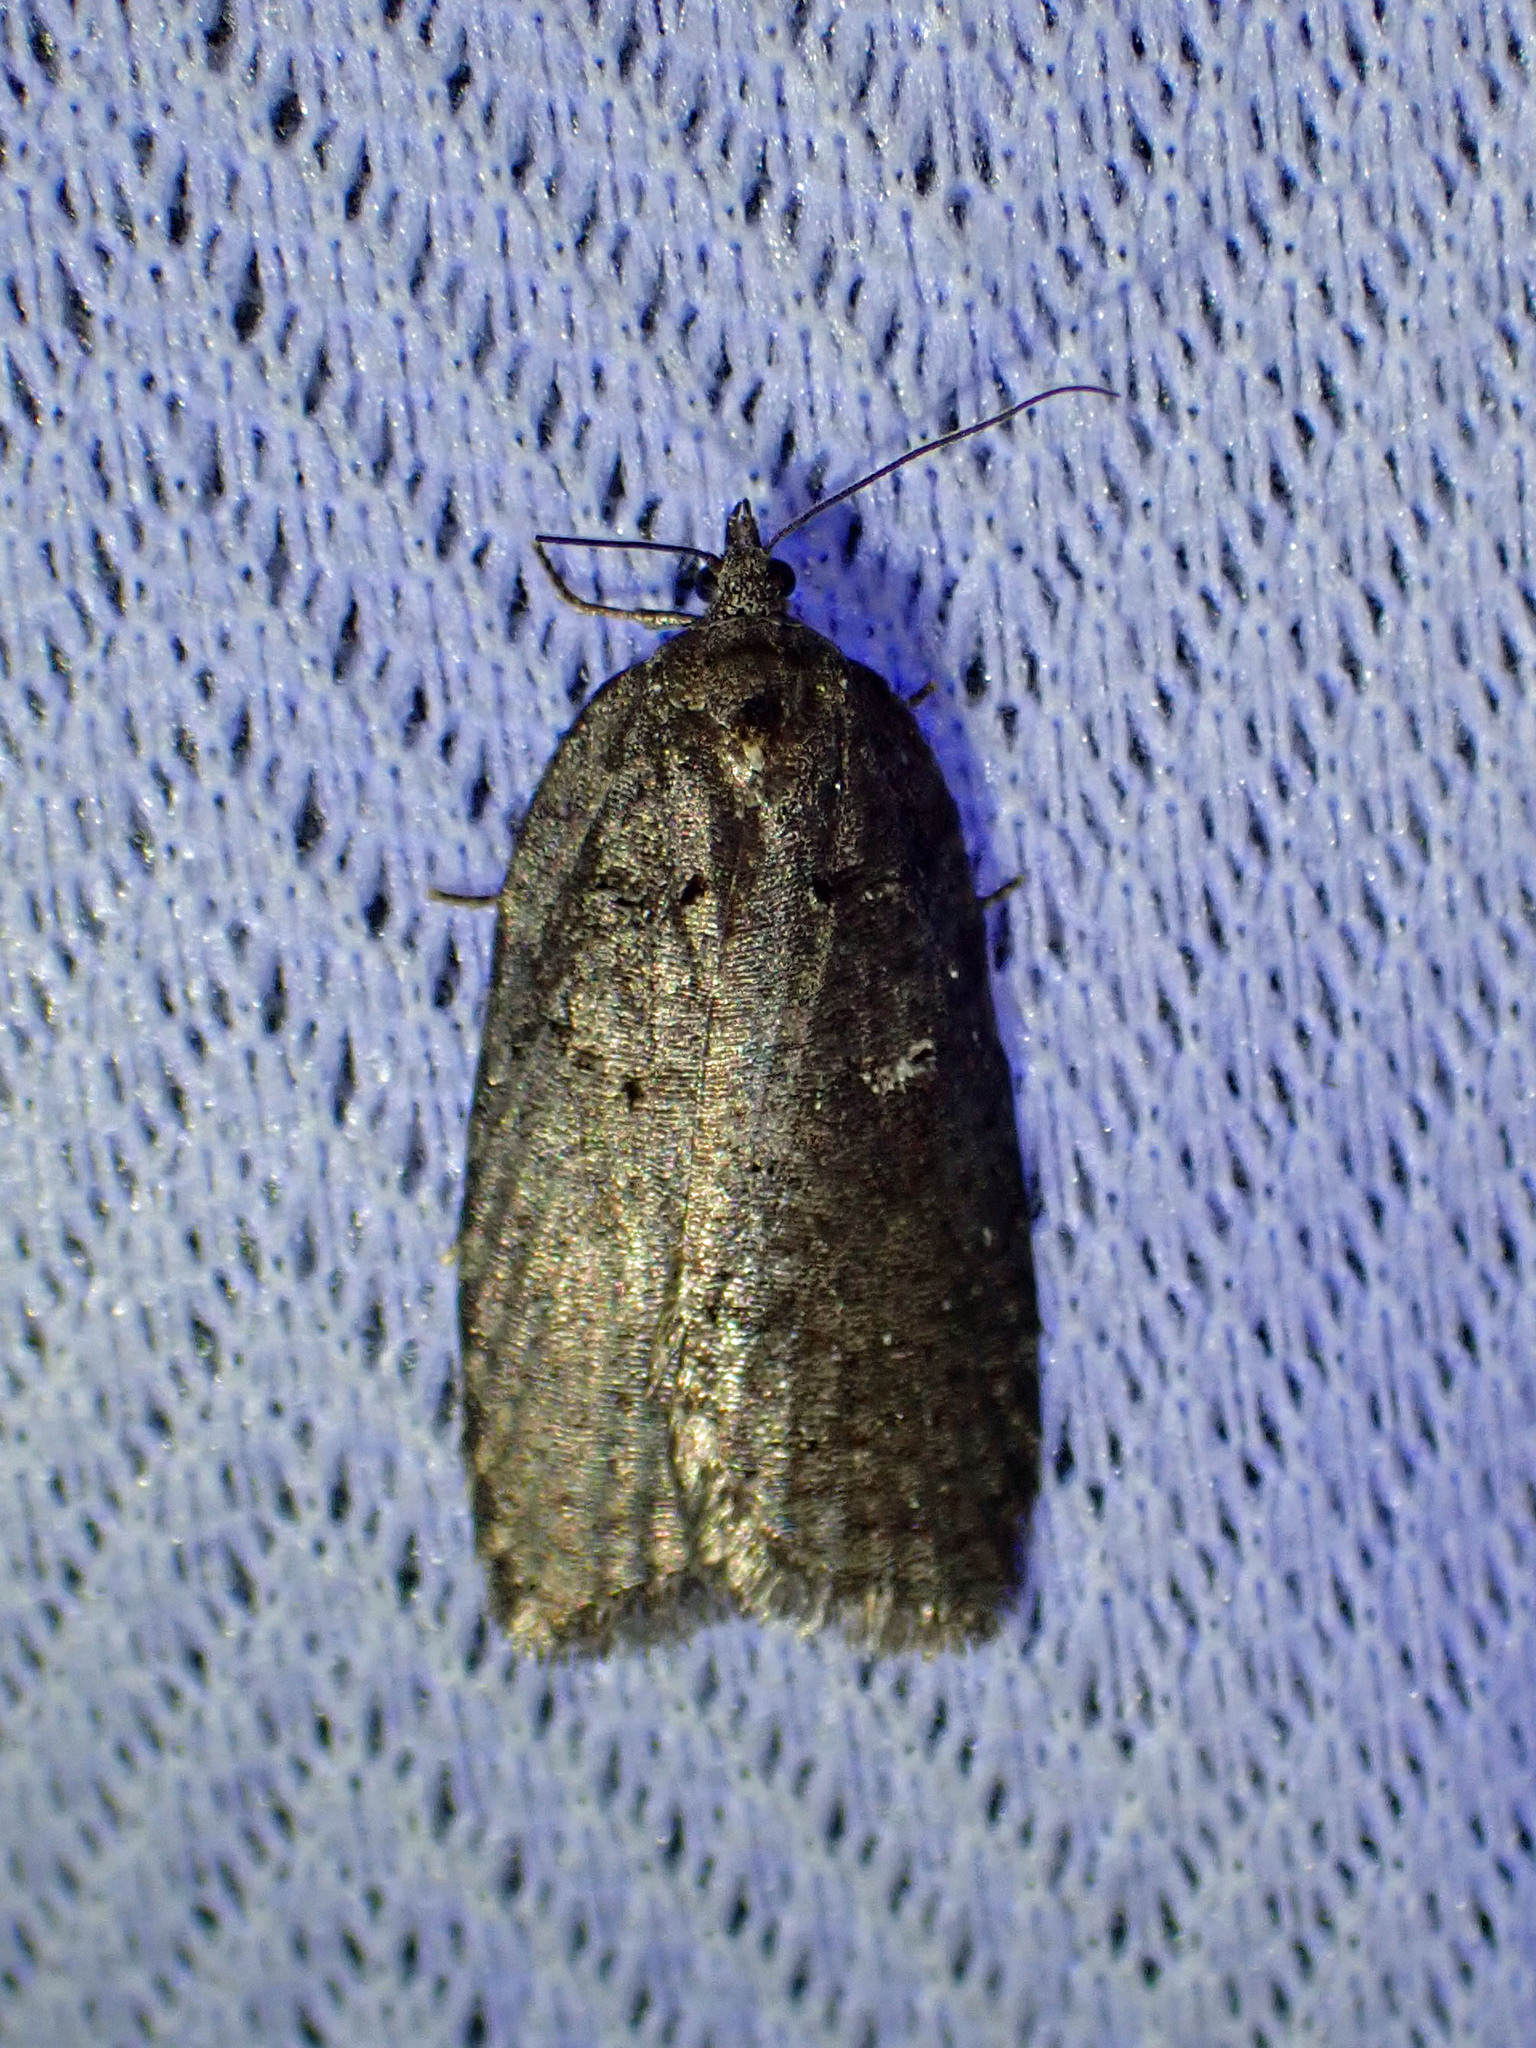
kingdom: Animalia
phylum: Arthropoda
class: Insecta
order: Lepidoptera
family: Tortricidae
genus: Acleris
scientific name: Acleris caliginosana
